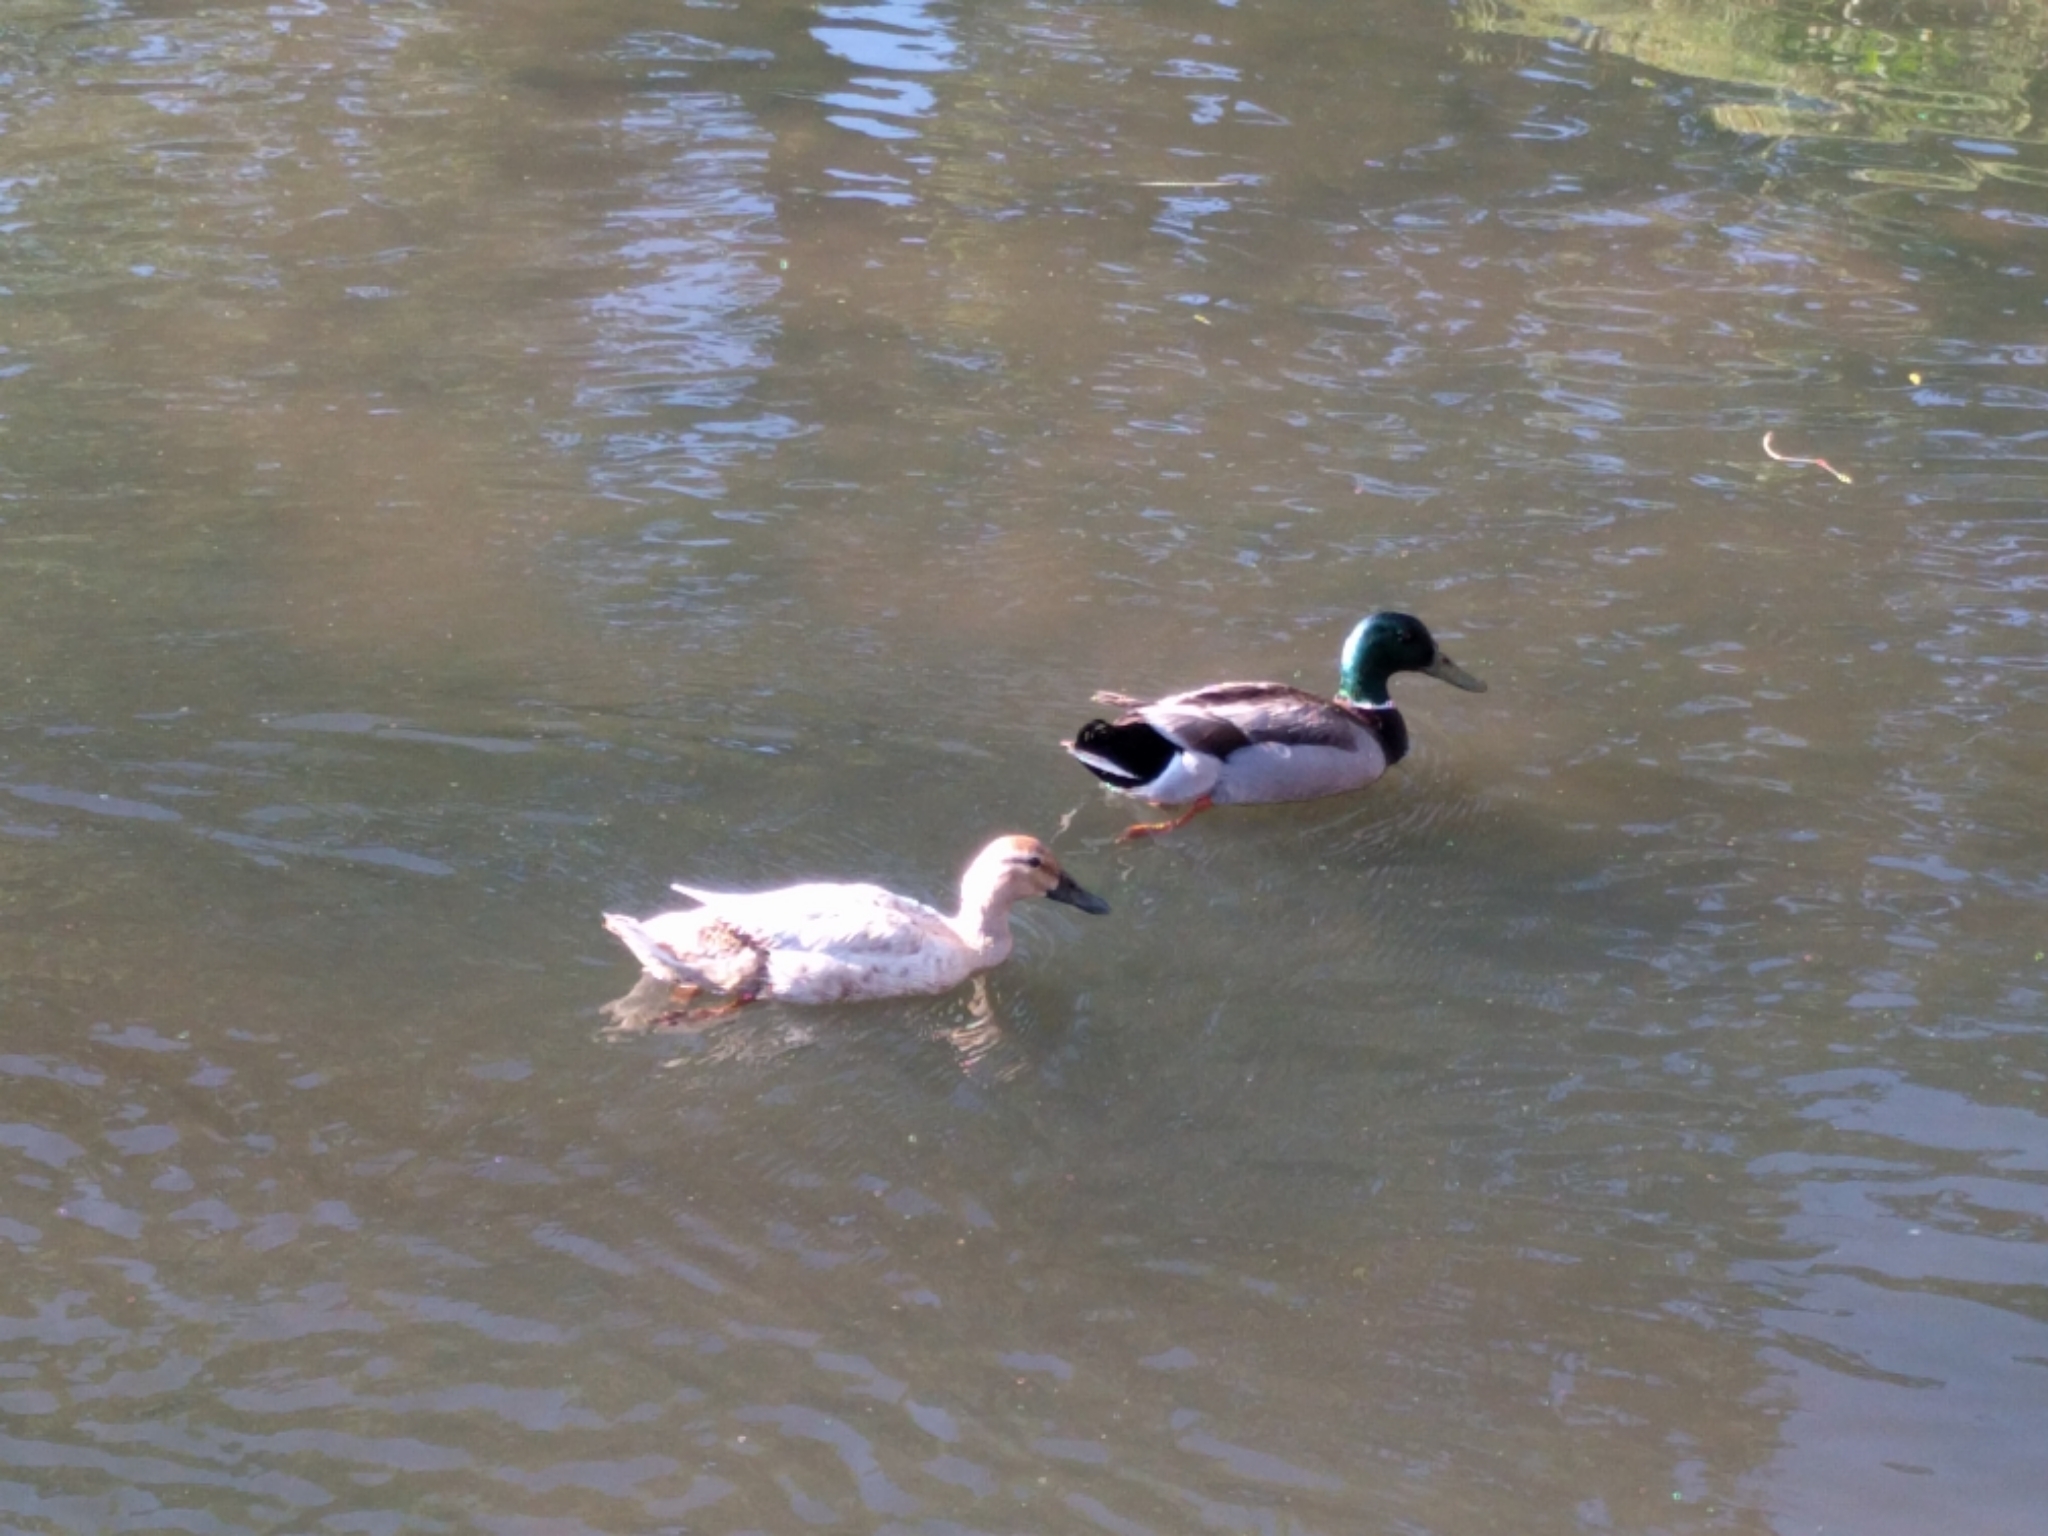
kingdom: Animalia
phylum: Chordata
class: Aves
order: Anseriformes
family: Anatidae
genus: Anas
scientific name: Anas platyrhynchos
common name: Mallard
